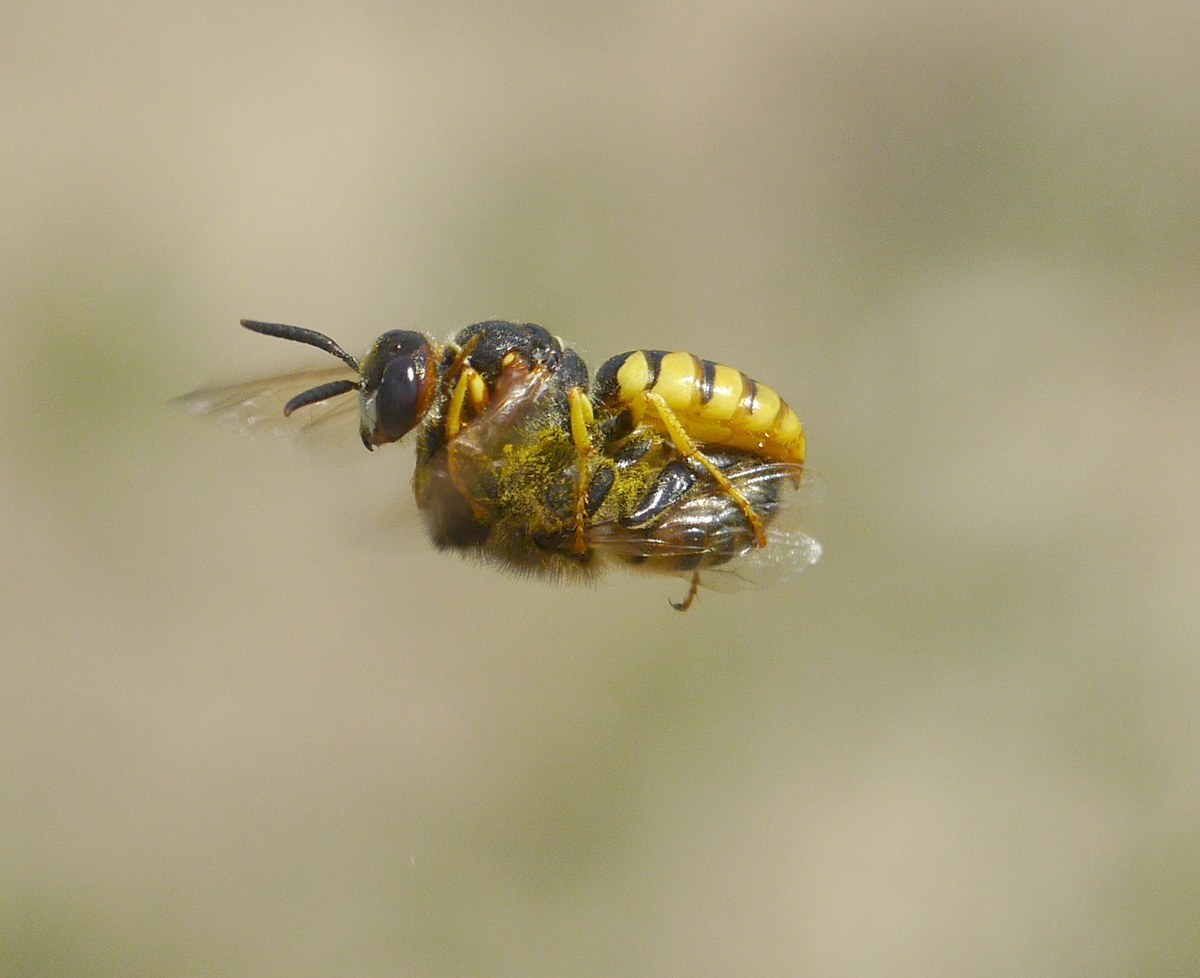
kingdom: Animalia
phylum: Arthropoda
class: Insecta
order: Hymenoptera
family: Crabronidae
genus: Philanthus
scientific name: Philanthus triangulum
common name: Bee wolf
